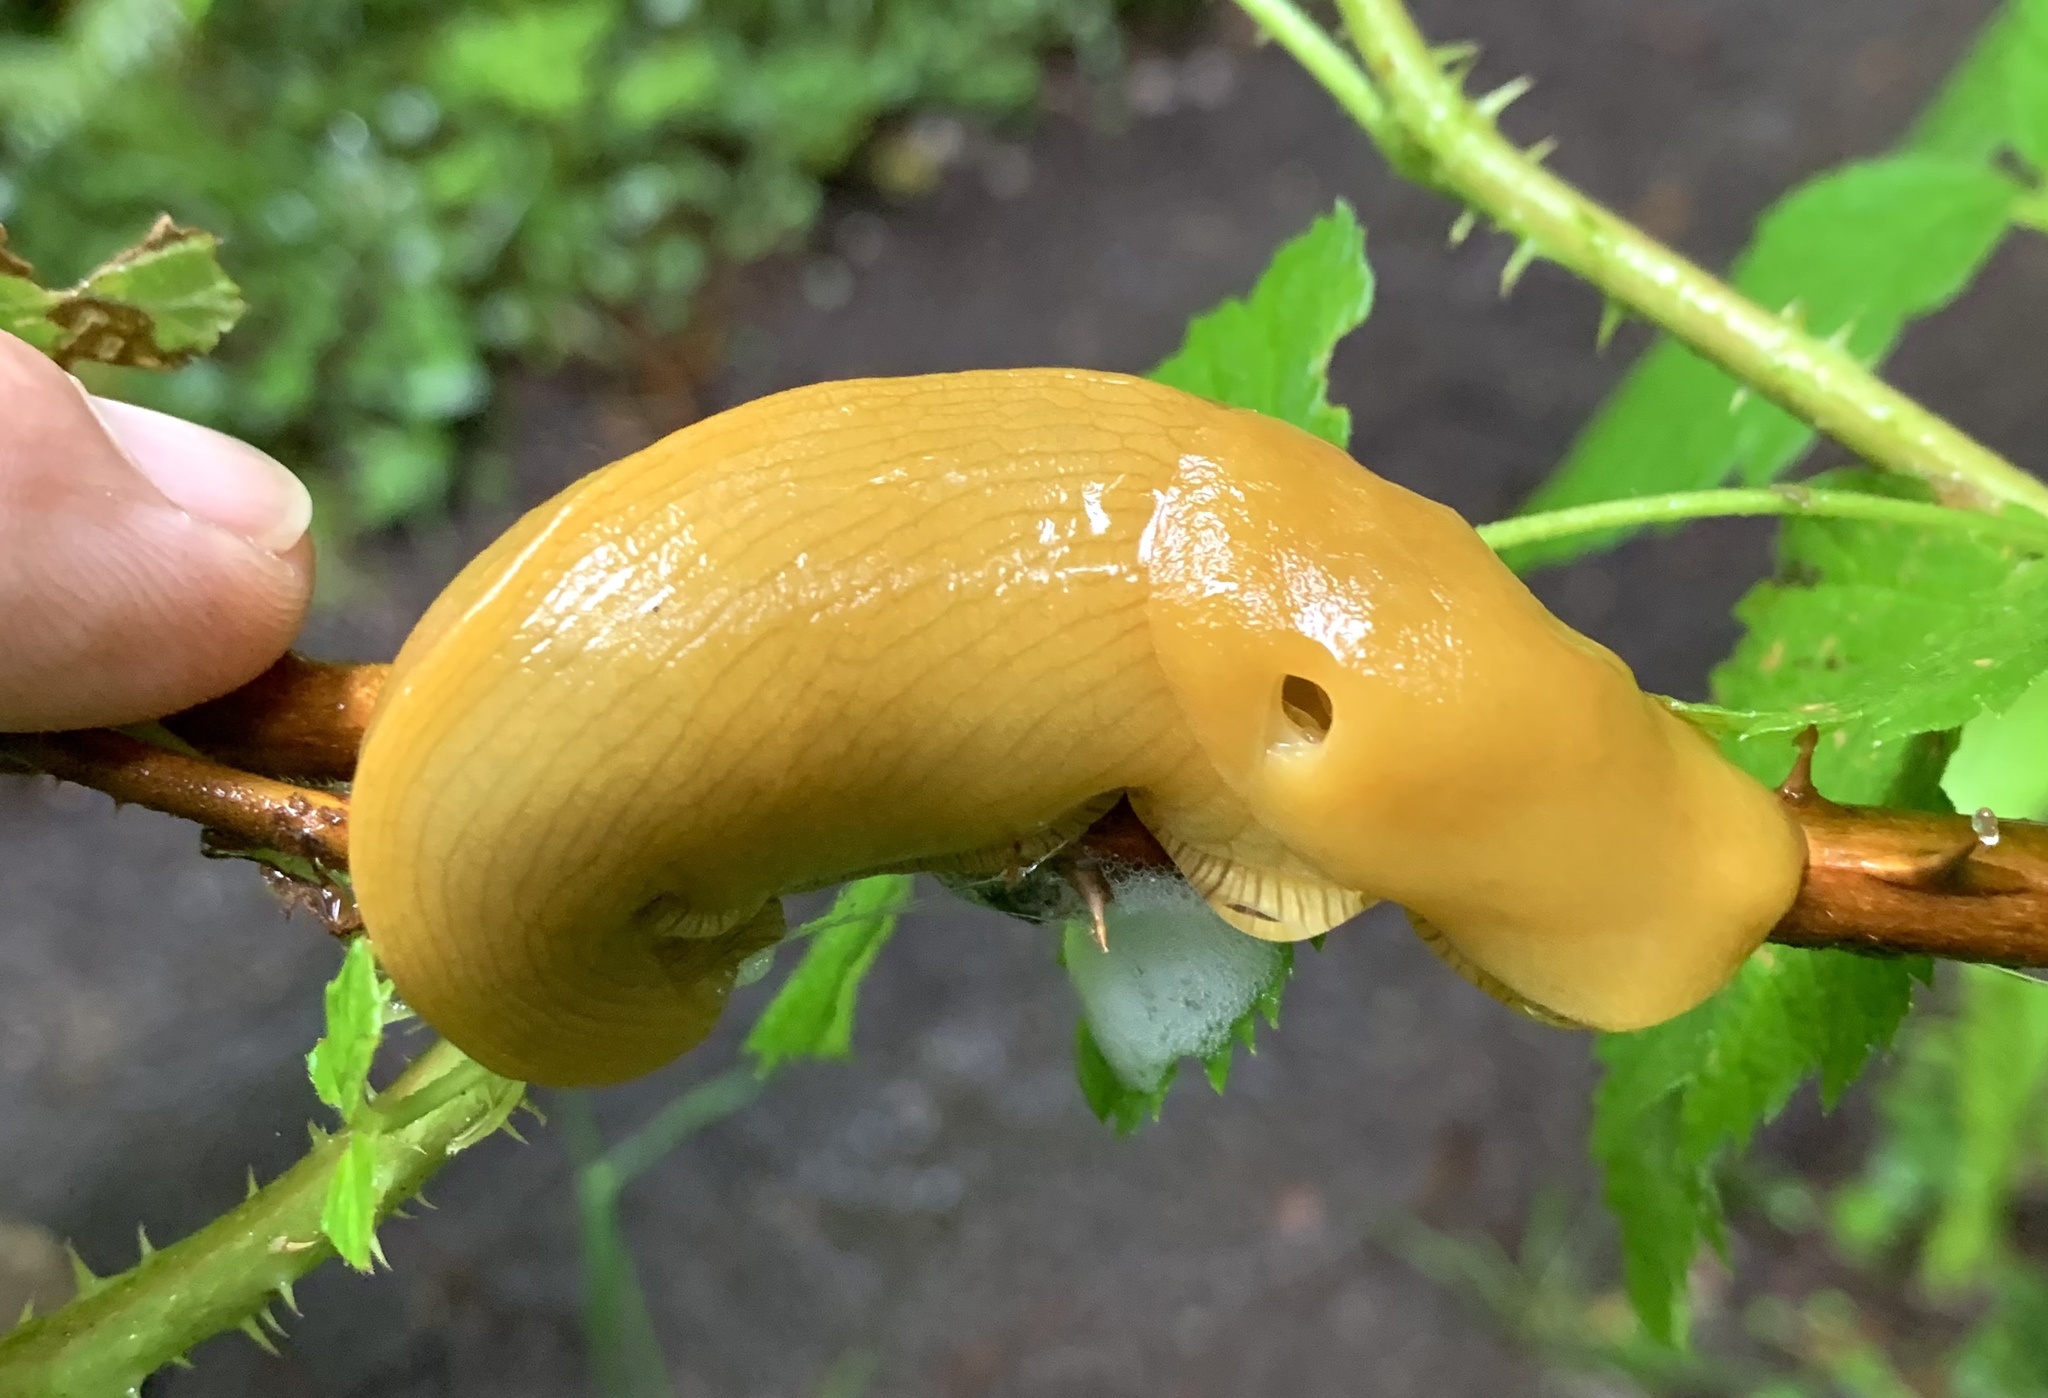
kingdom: Animalia
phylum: Mollusca
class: Gastropoda
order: Stylommatophora
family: Ariolimacidae
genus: Ariolimax
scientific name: Ariolimax columbianus
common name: Pacific banana slug
